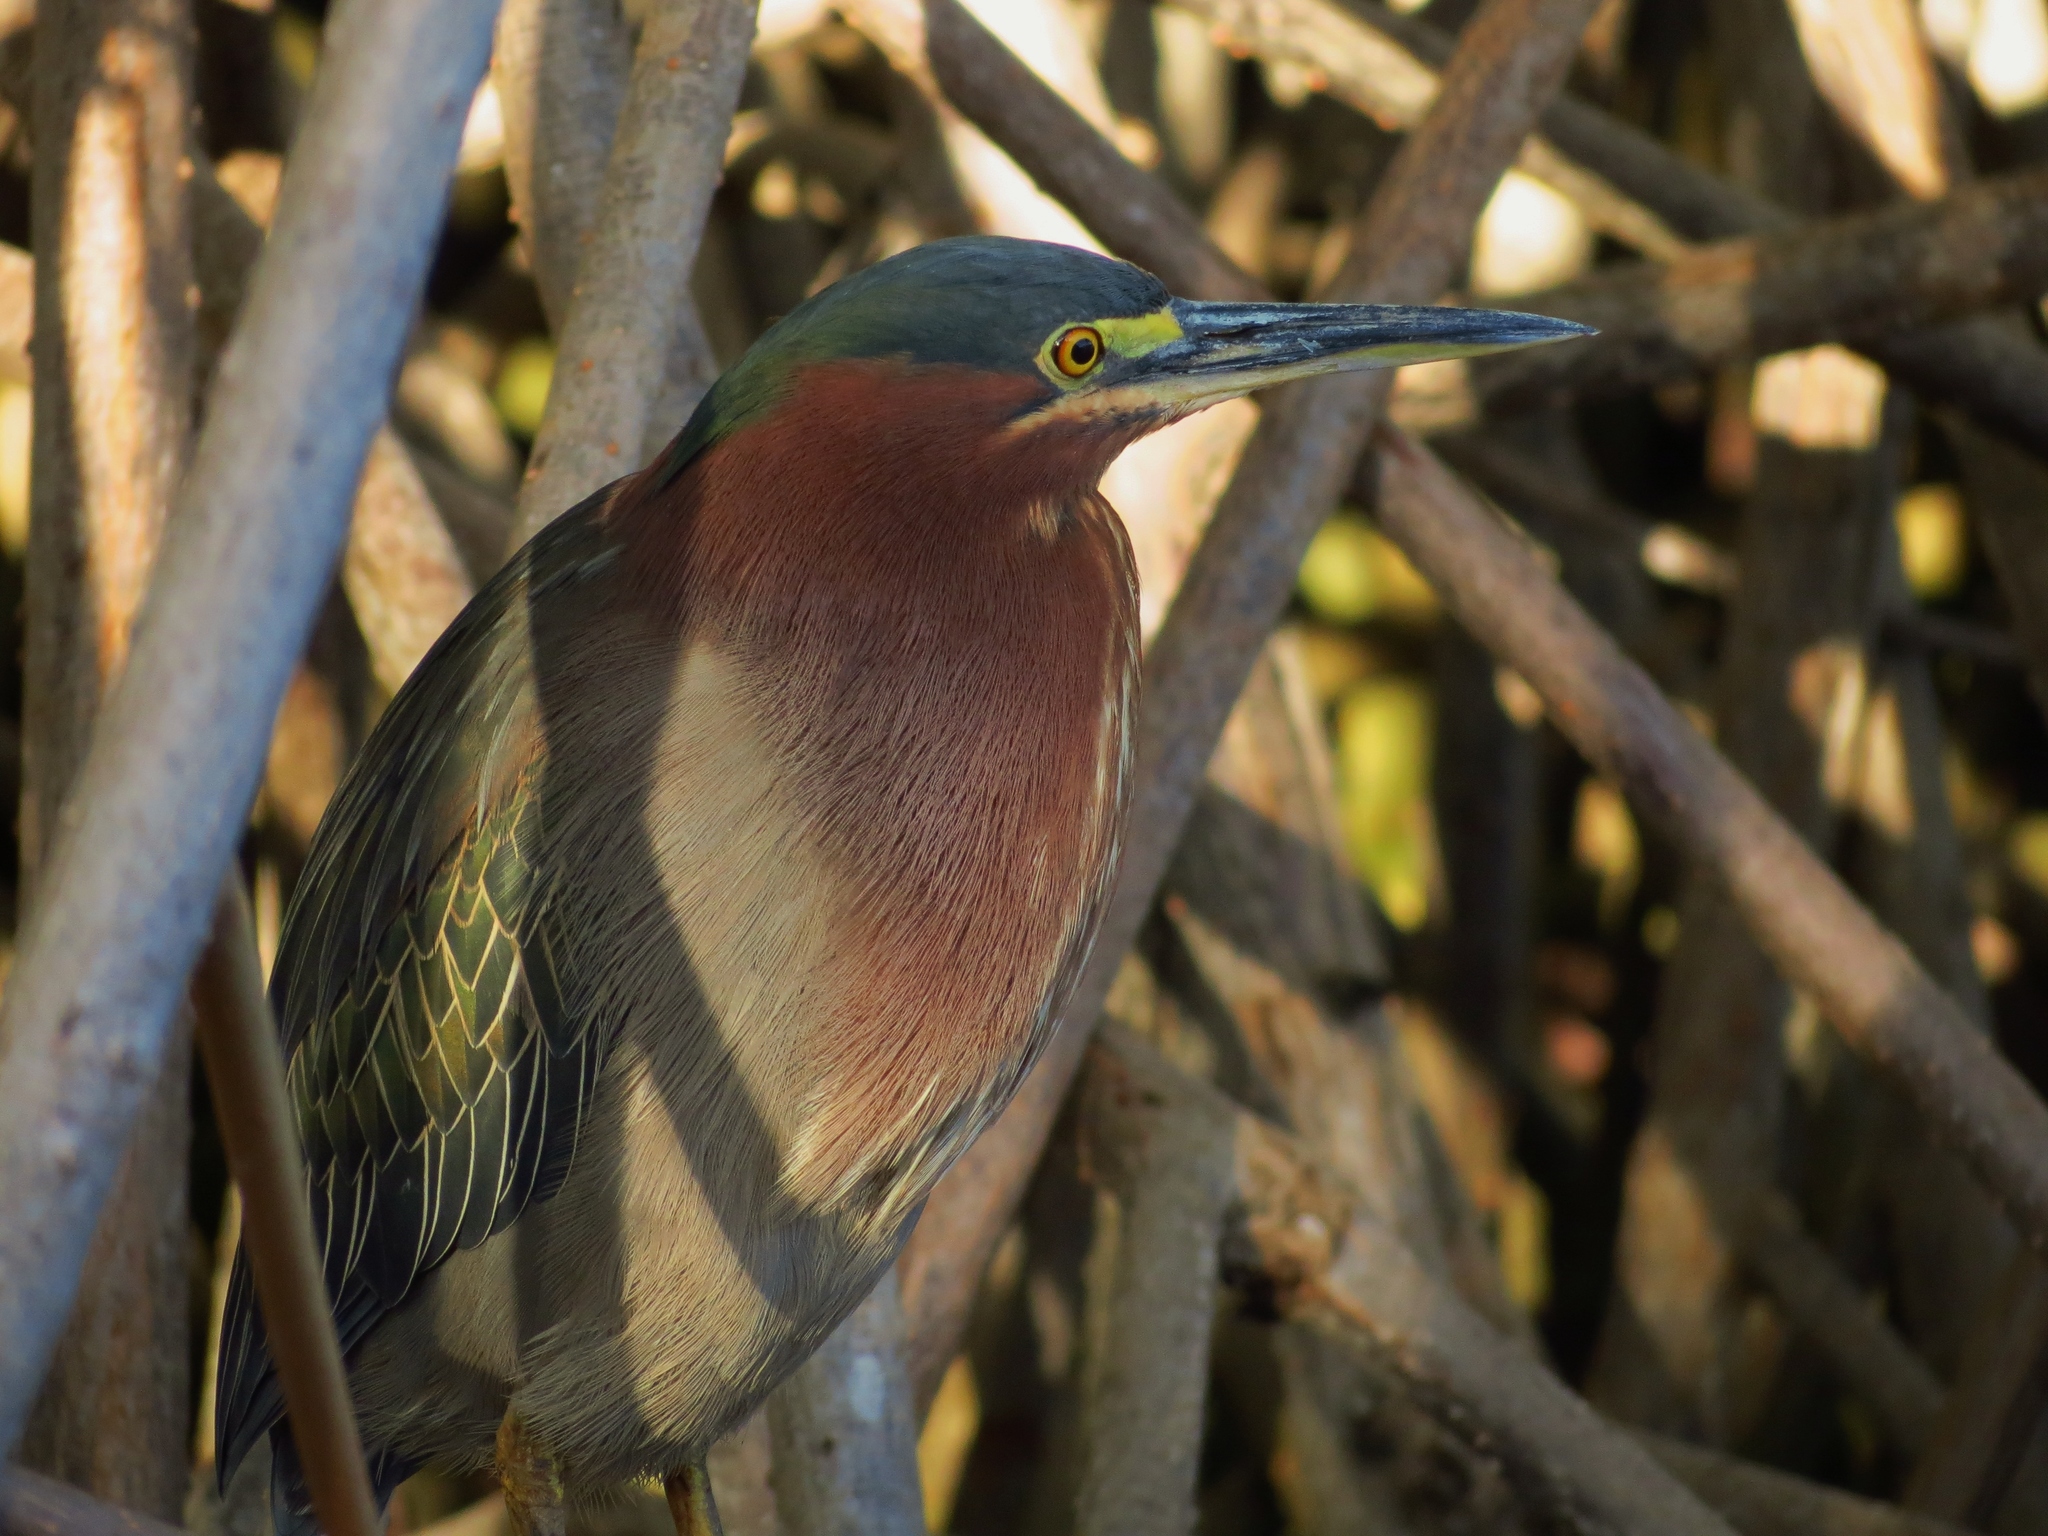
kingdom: Animalia
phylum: Chordata
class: Aves
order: Pelecaniformes
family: Ardeidae
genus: Butorides
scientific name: Butorides virescens
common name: Green heron
